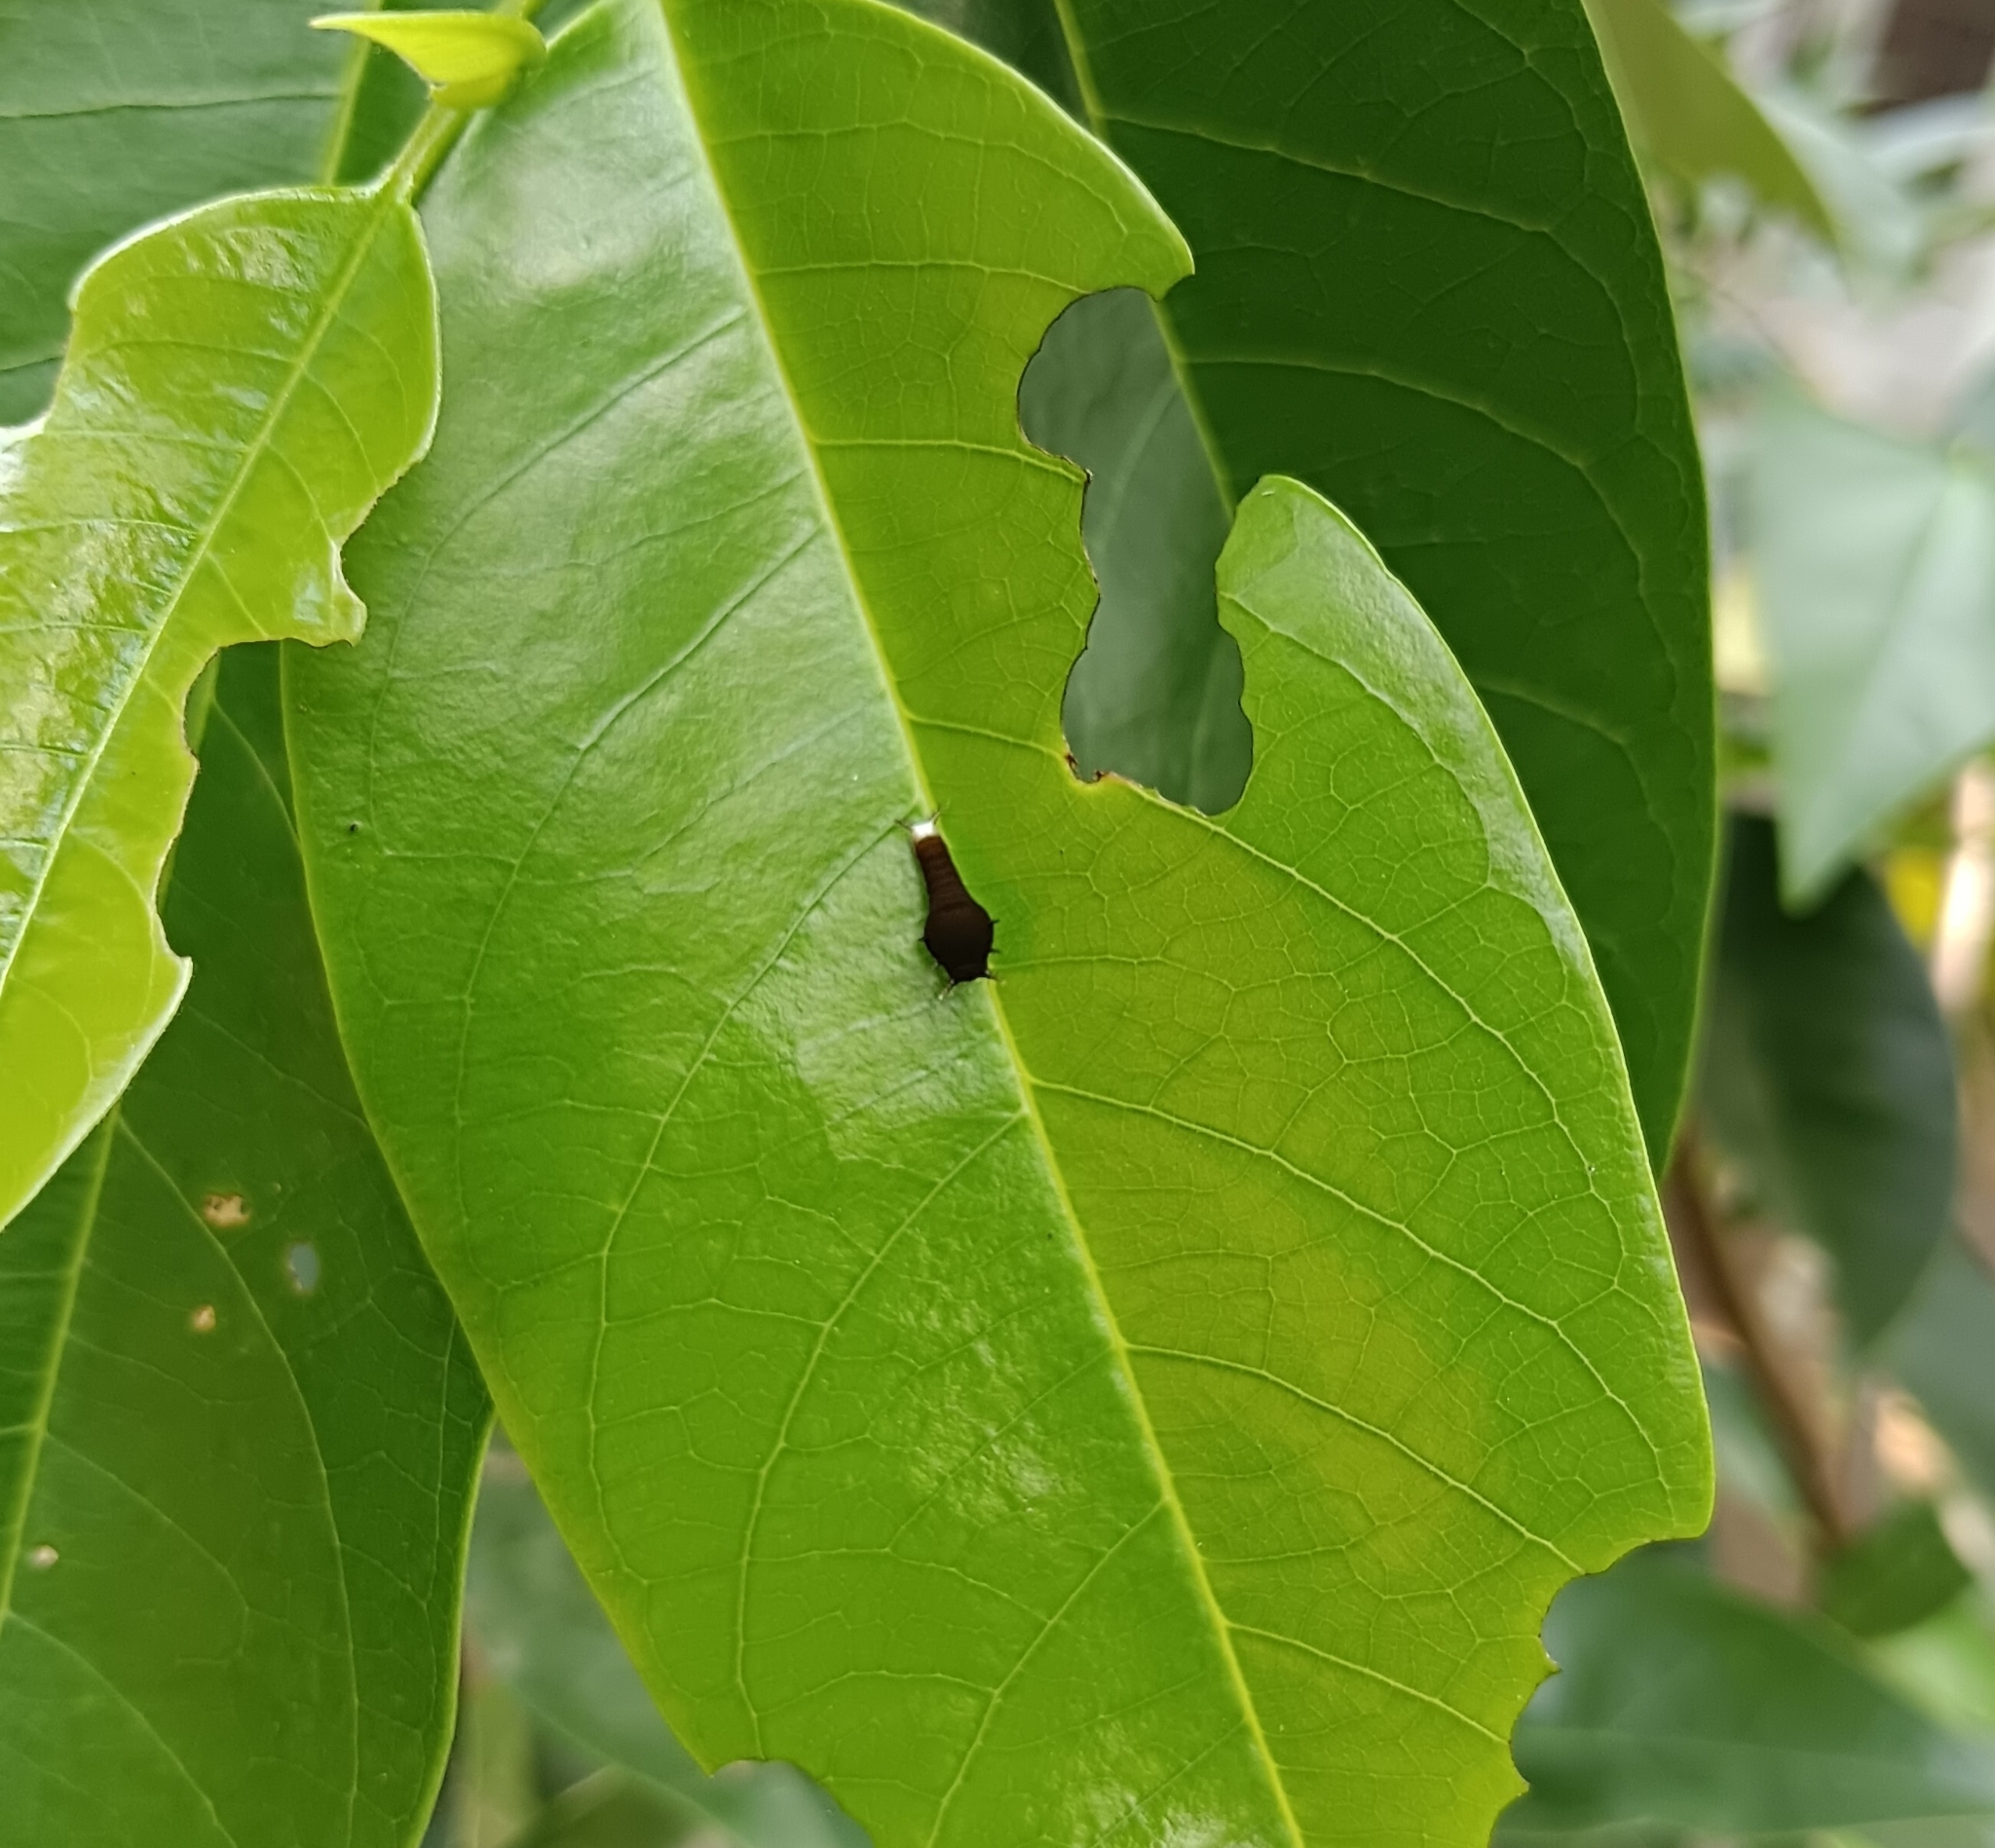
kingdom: Animalia
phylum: Arthropoda
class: Insecta
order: Lepidoptera
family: Papilionidae
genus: Graphium
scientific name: Graphium doson
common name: Common jay
